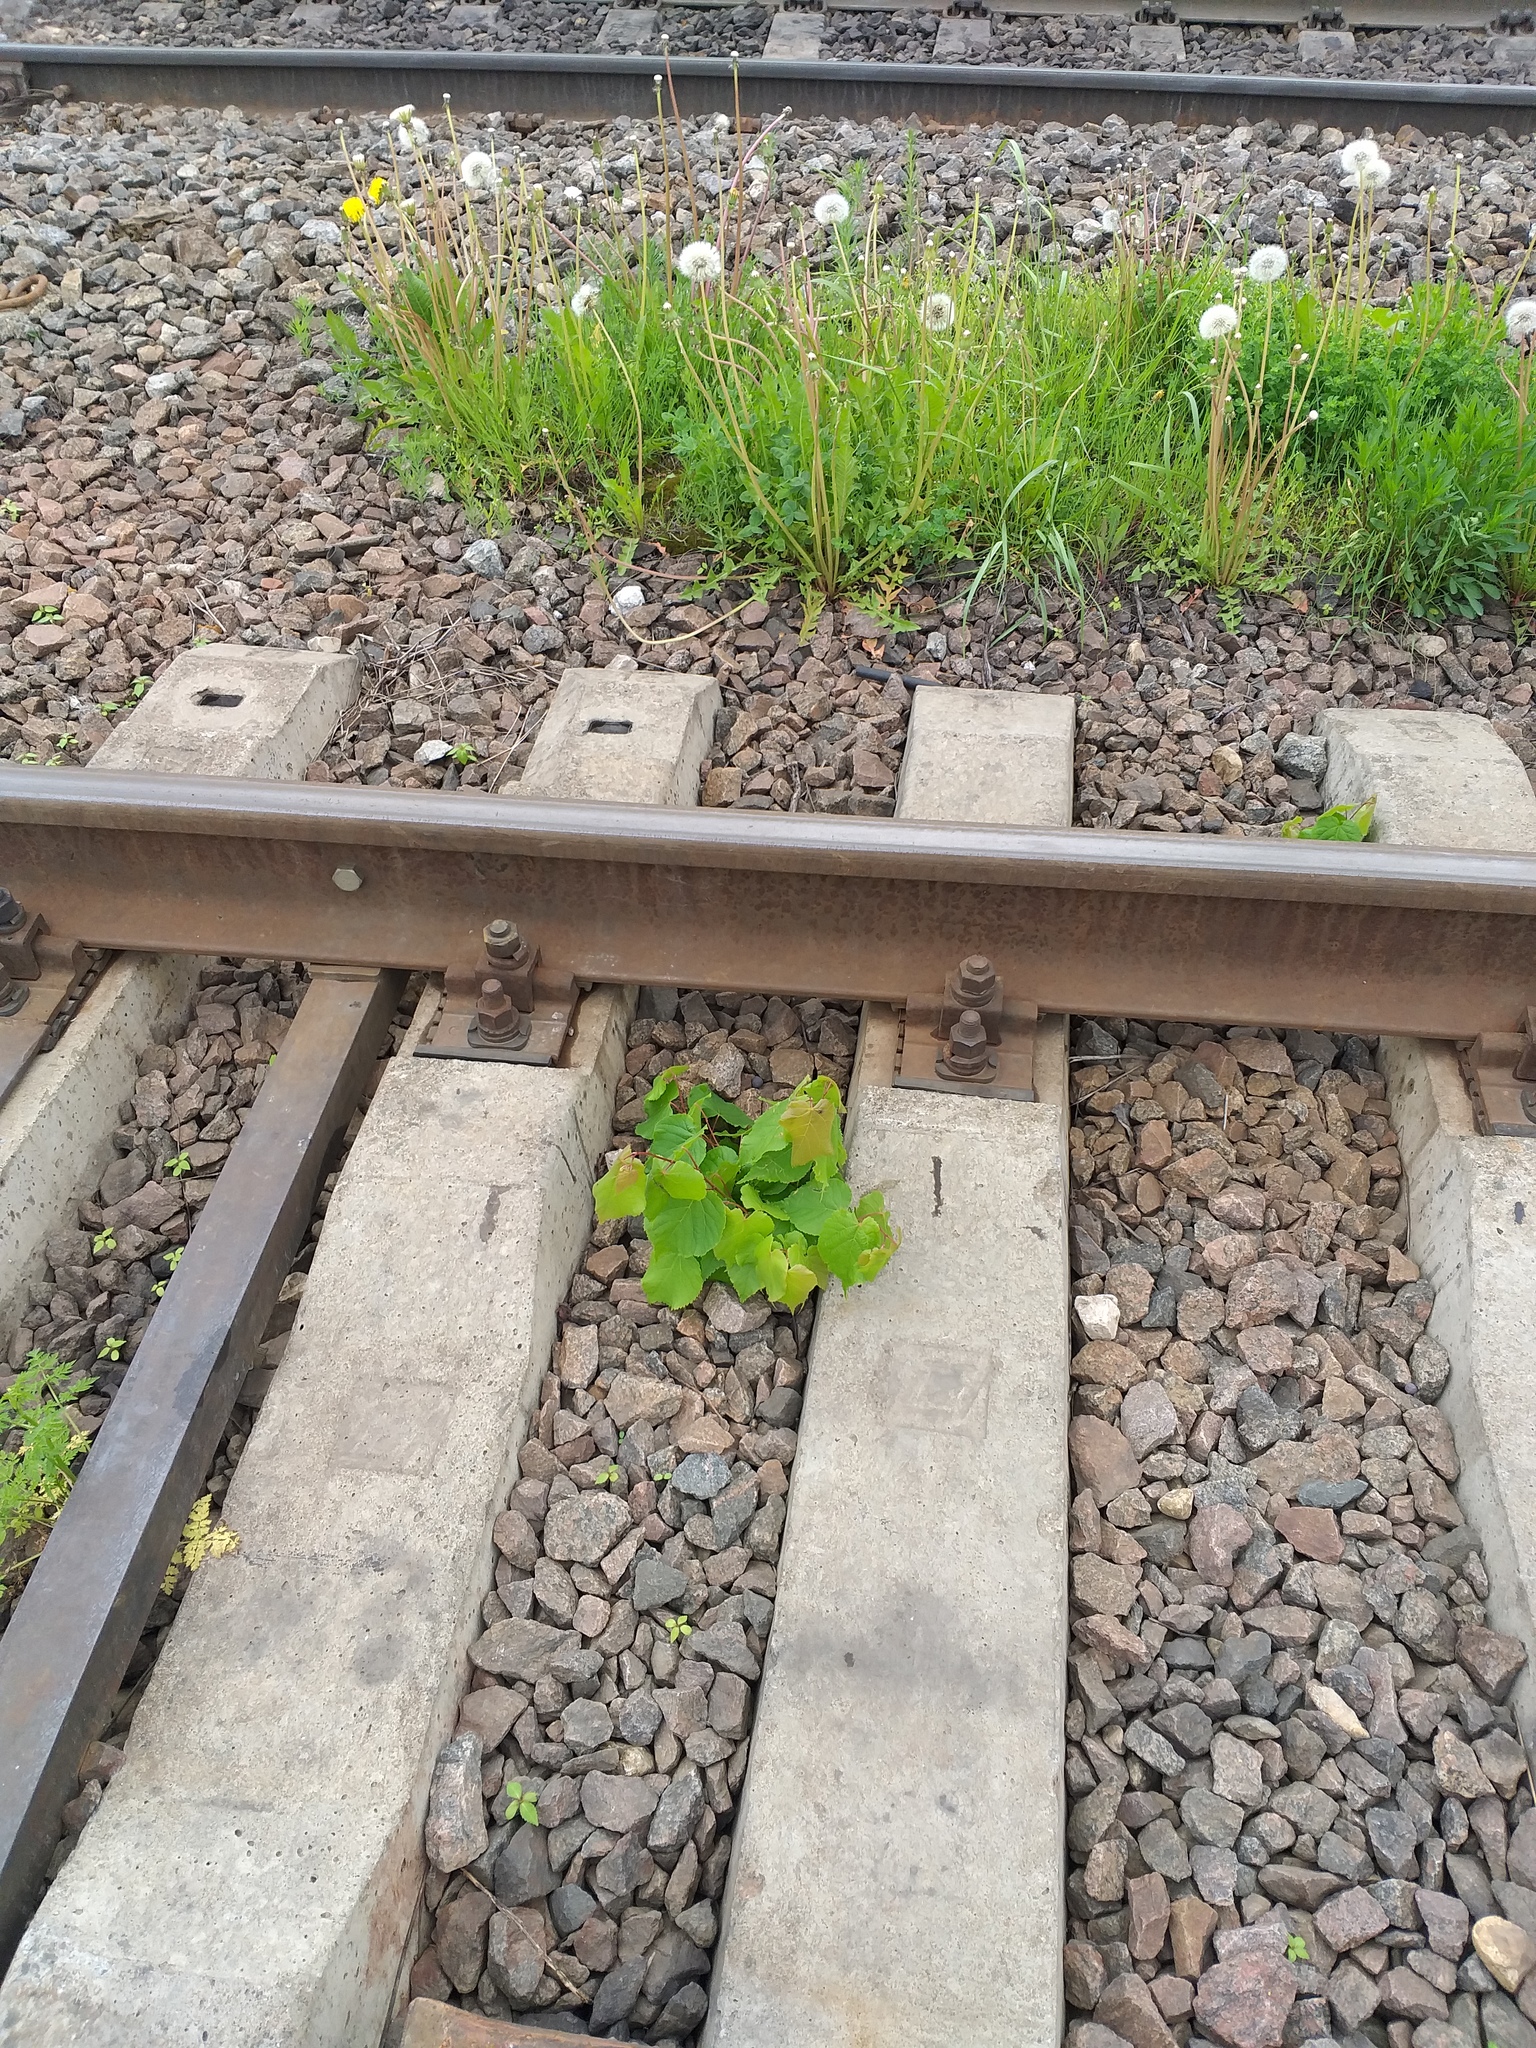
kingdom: Plantae
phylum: Tracheophyta
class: Magnoliopsida
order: Malvales
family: Malvaceae
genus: Tilia
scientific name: Tilia cordata
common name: Small-leaved lime
